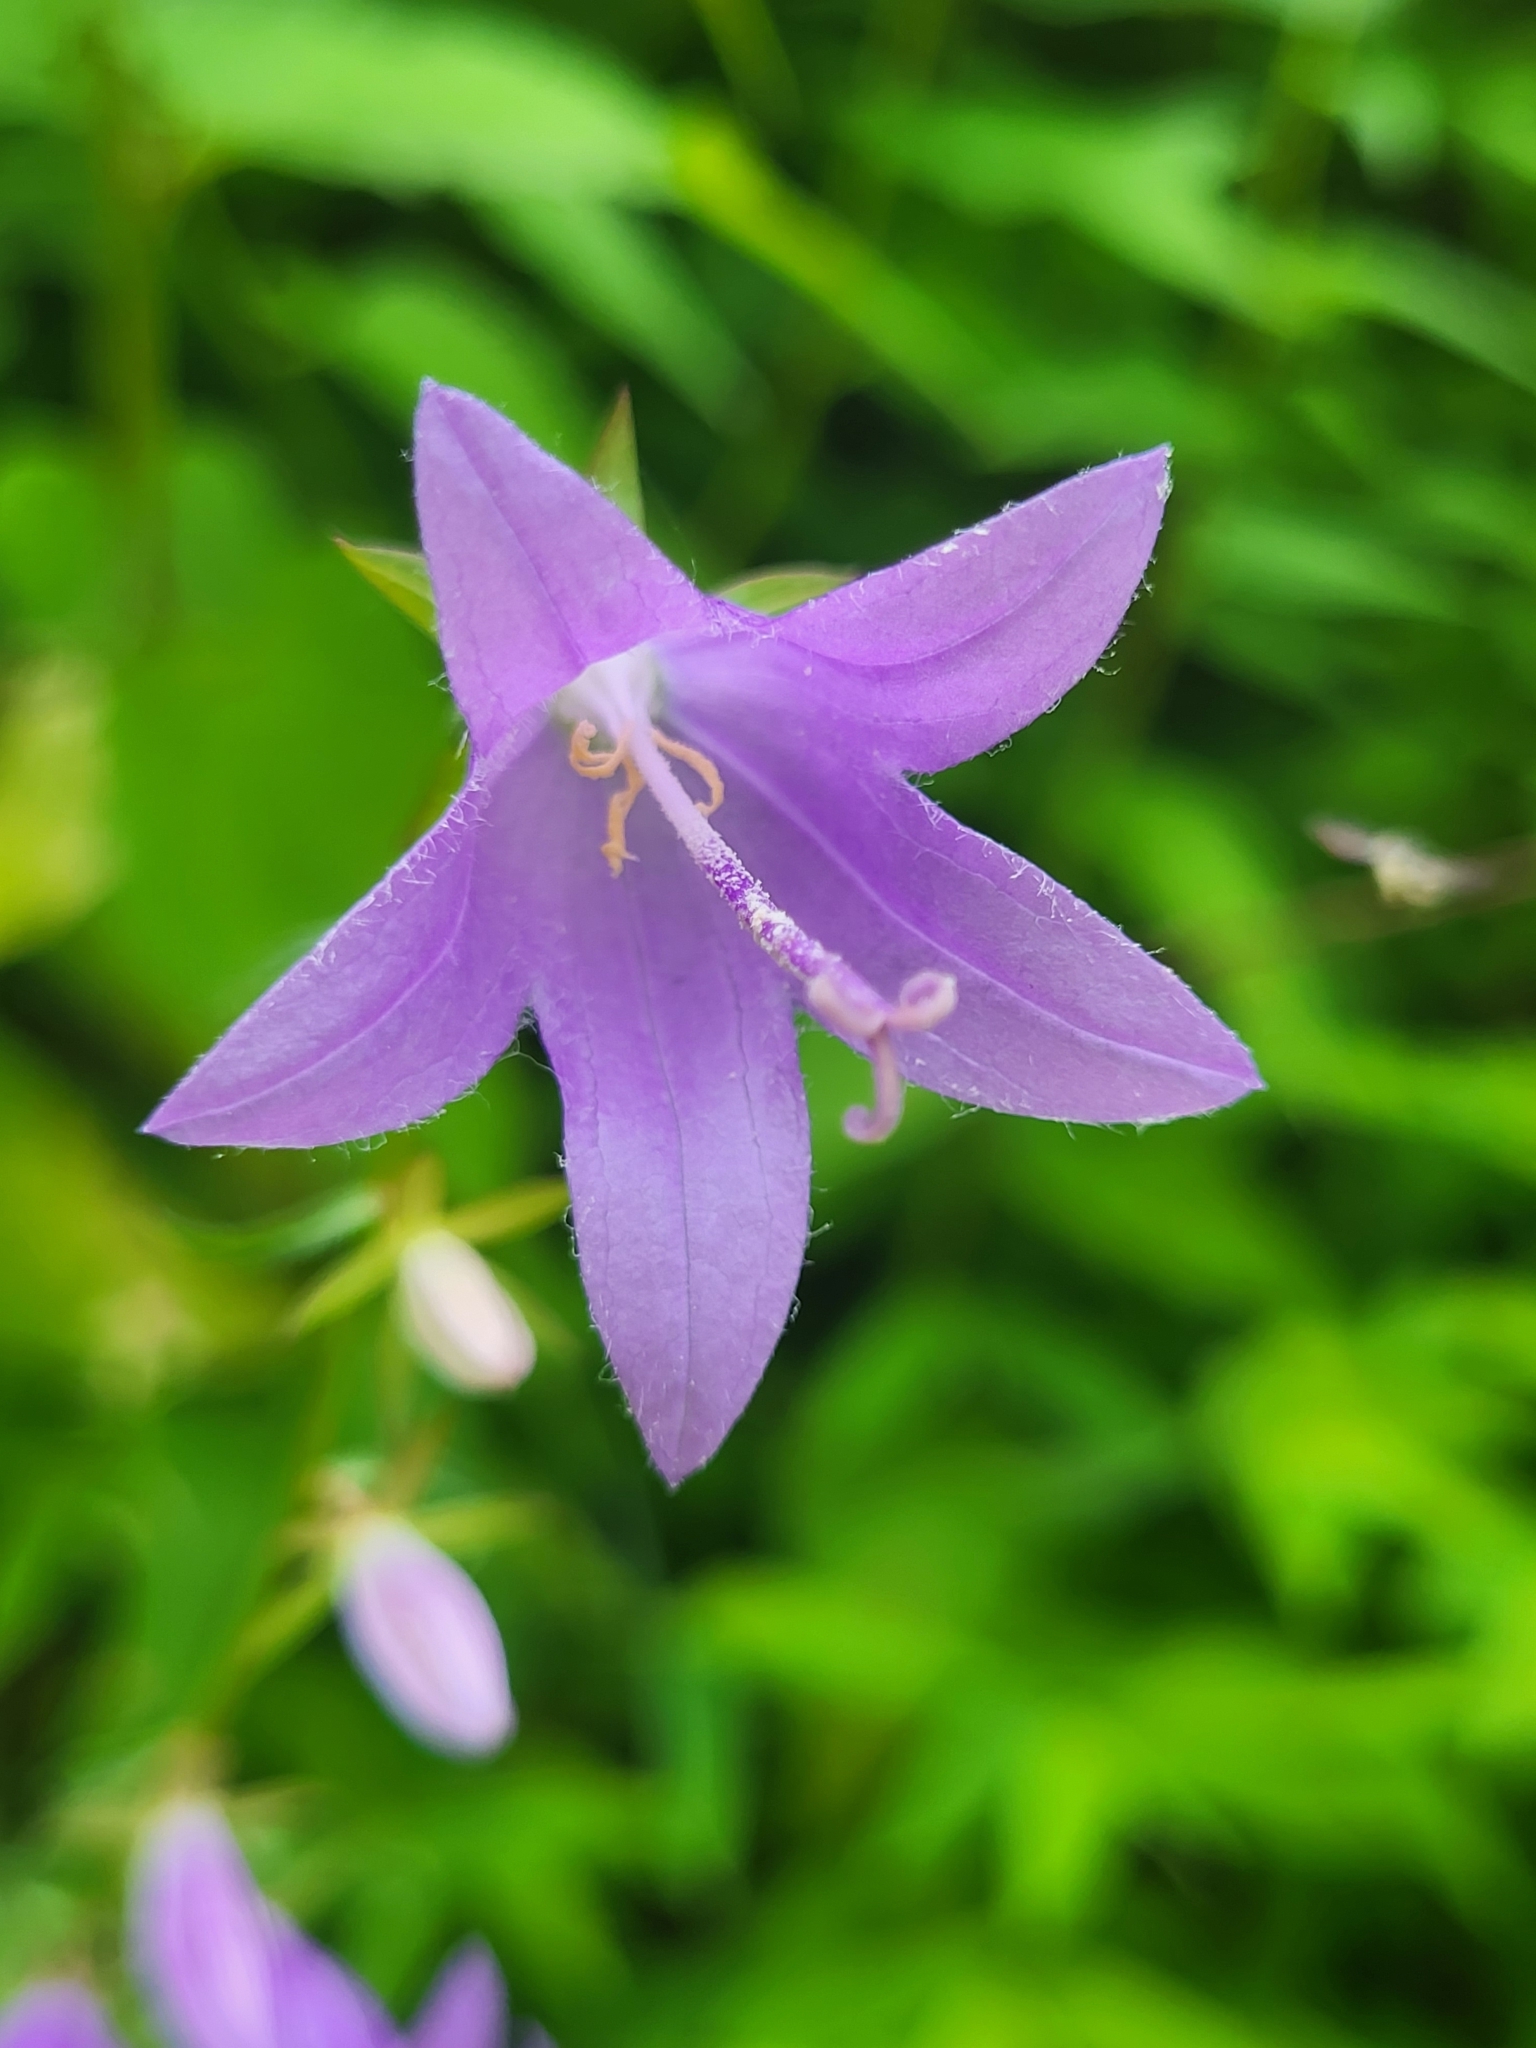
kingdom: Plantae
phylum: Tracheophyta
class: Magnoliopsida
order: Asterales
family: Campanulaceae
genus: Campanula
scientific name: Campanula rapunculoides
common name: Creeping bellflower
